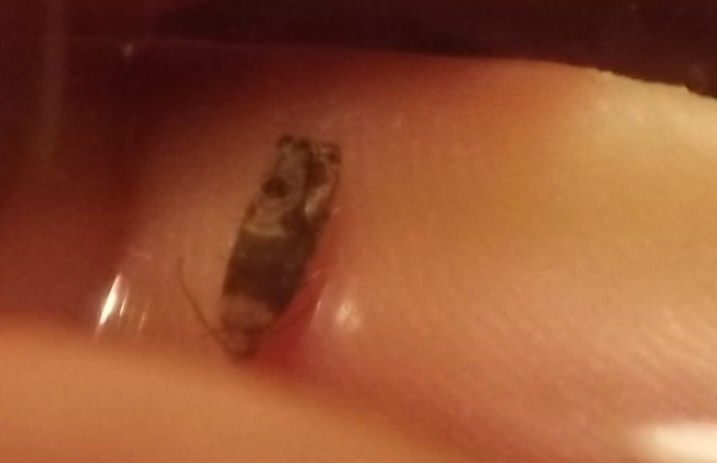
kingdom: Animalia
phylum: Arthropoda
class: Insecta
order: Lepidoptera
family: Tortricidae
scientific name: Tortricidae
